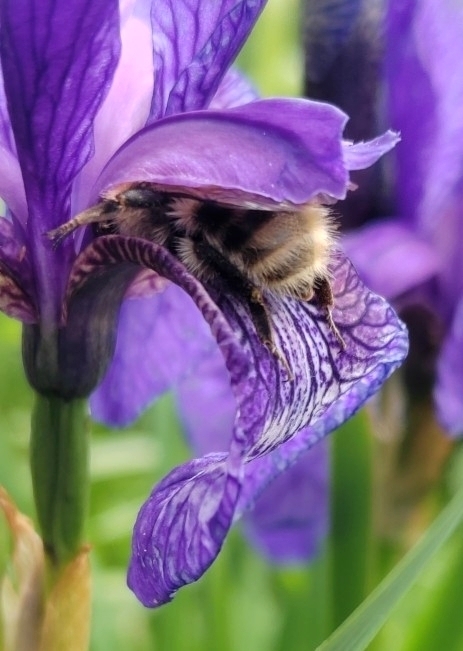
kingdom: Animalia
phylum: Arthropoda
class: Insecta
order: Hymenoptera
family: Apidae
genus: Bombus
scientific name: Bombus
